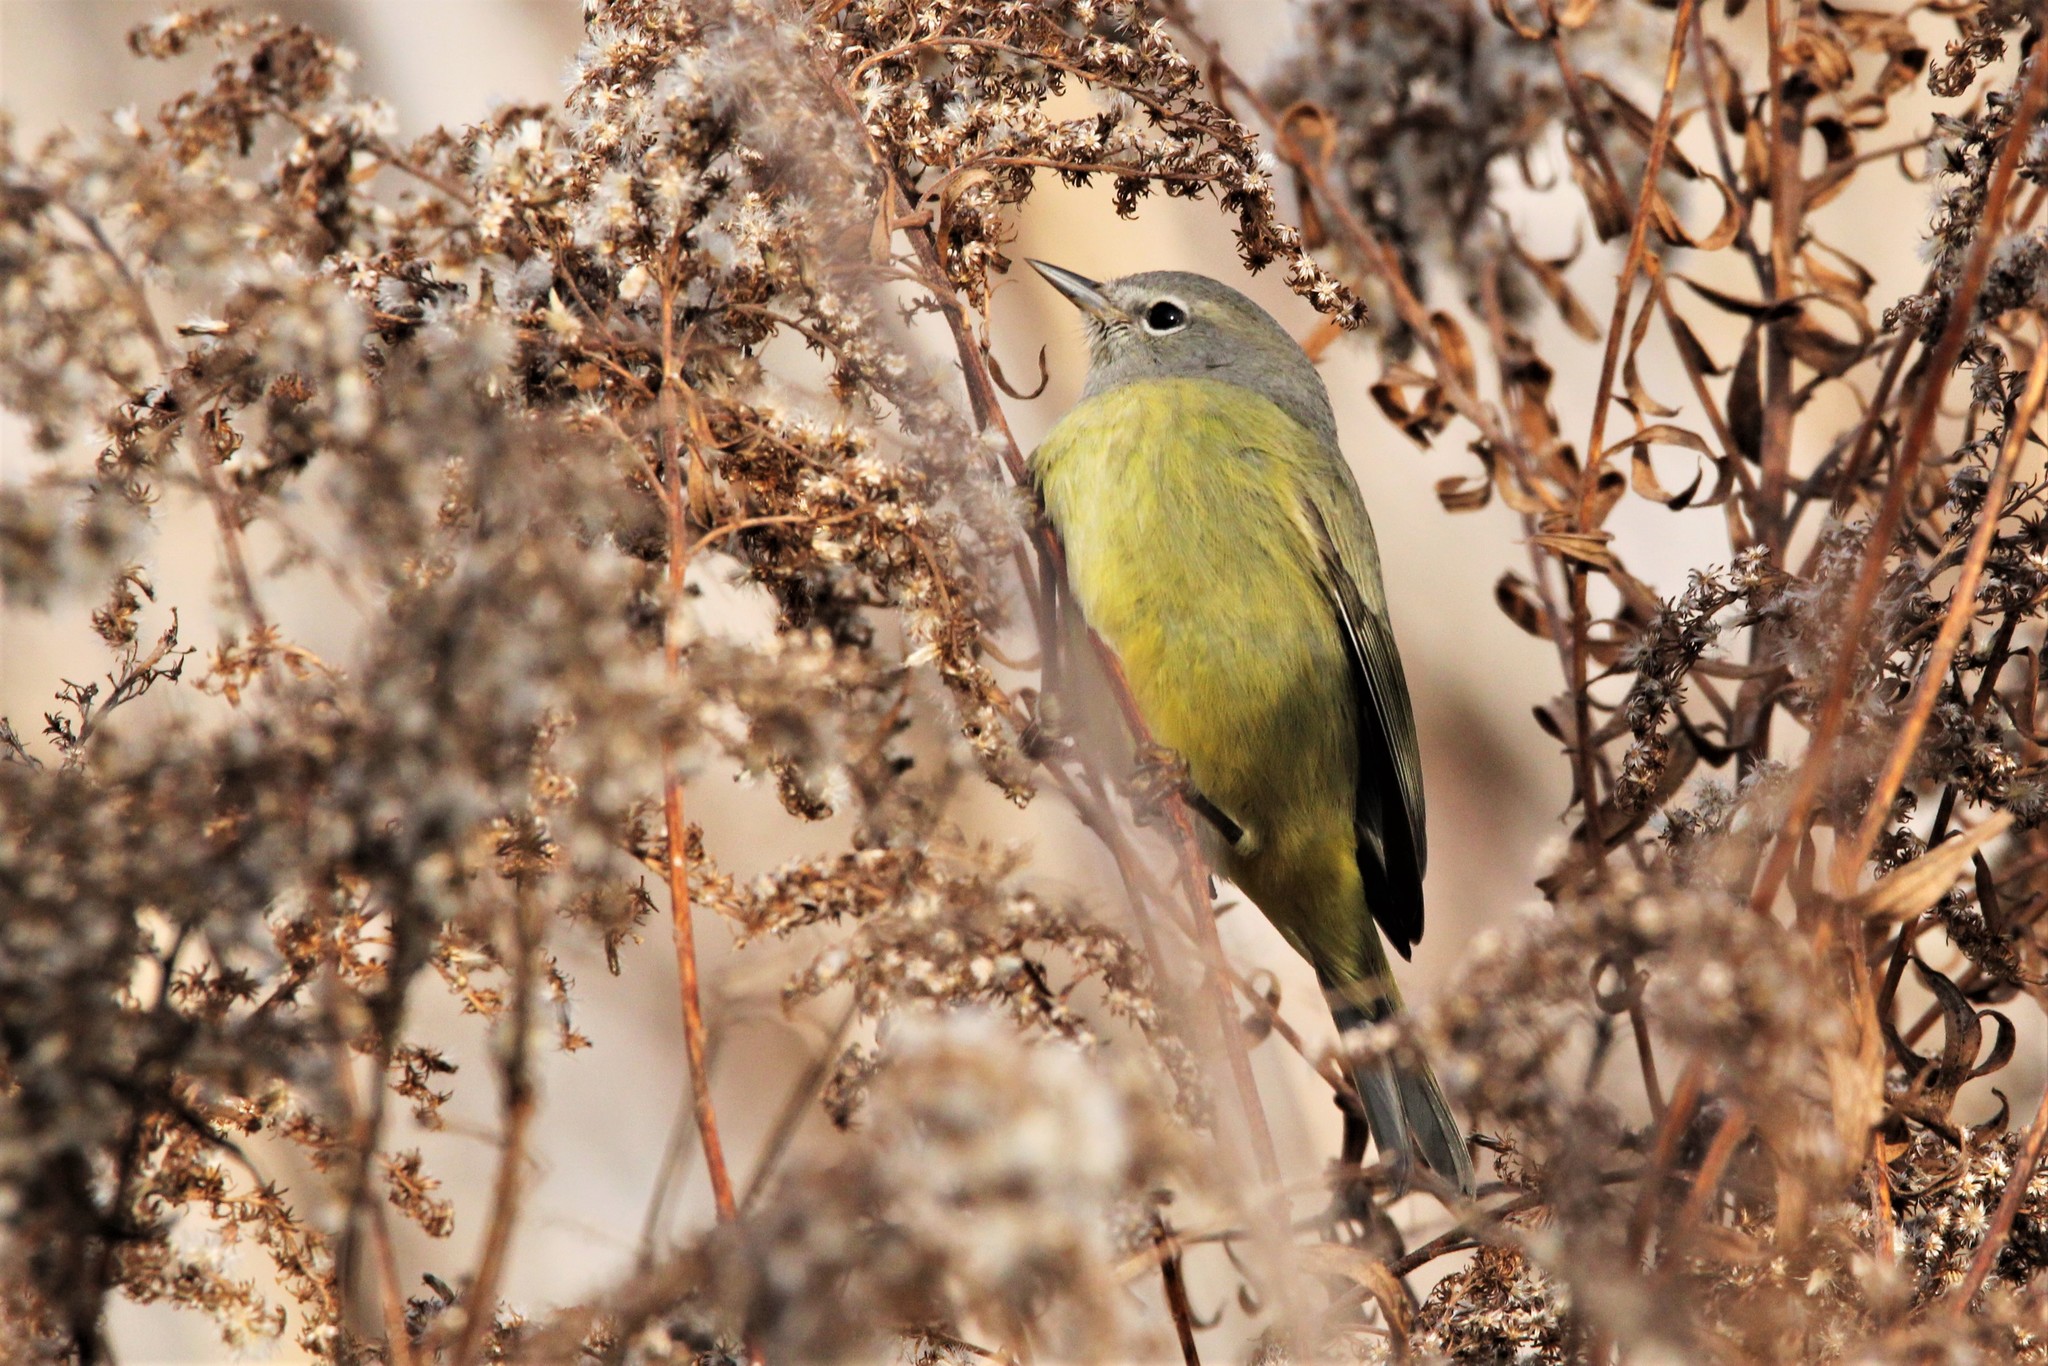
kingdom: Animalia
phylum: Chordata
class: Aves
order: Passeriformes
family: Parulidae
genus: Leiothlypis
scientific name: Leiothlypis celata
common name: Orange-crowned warbler
